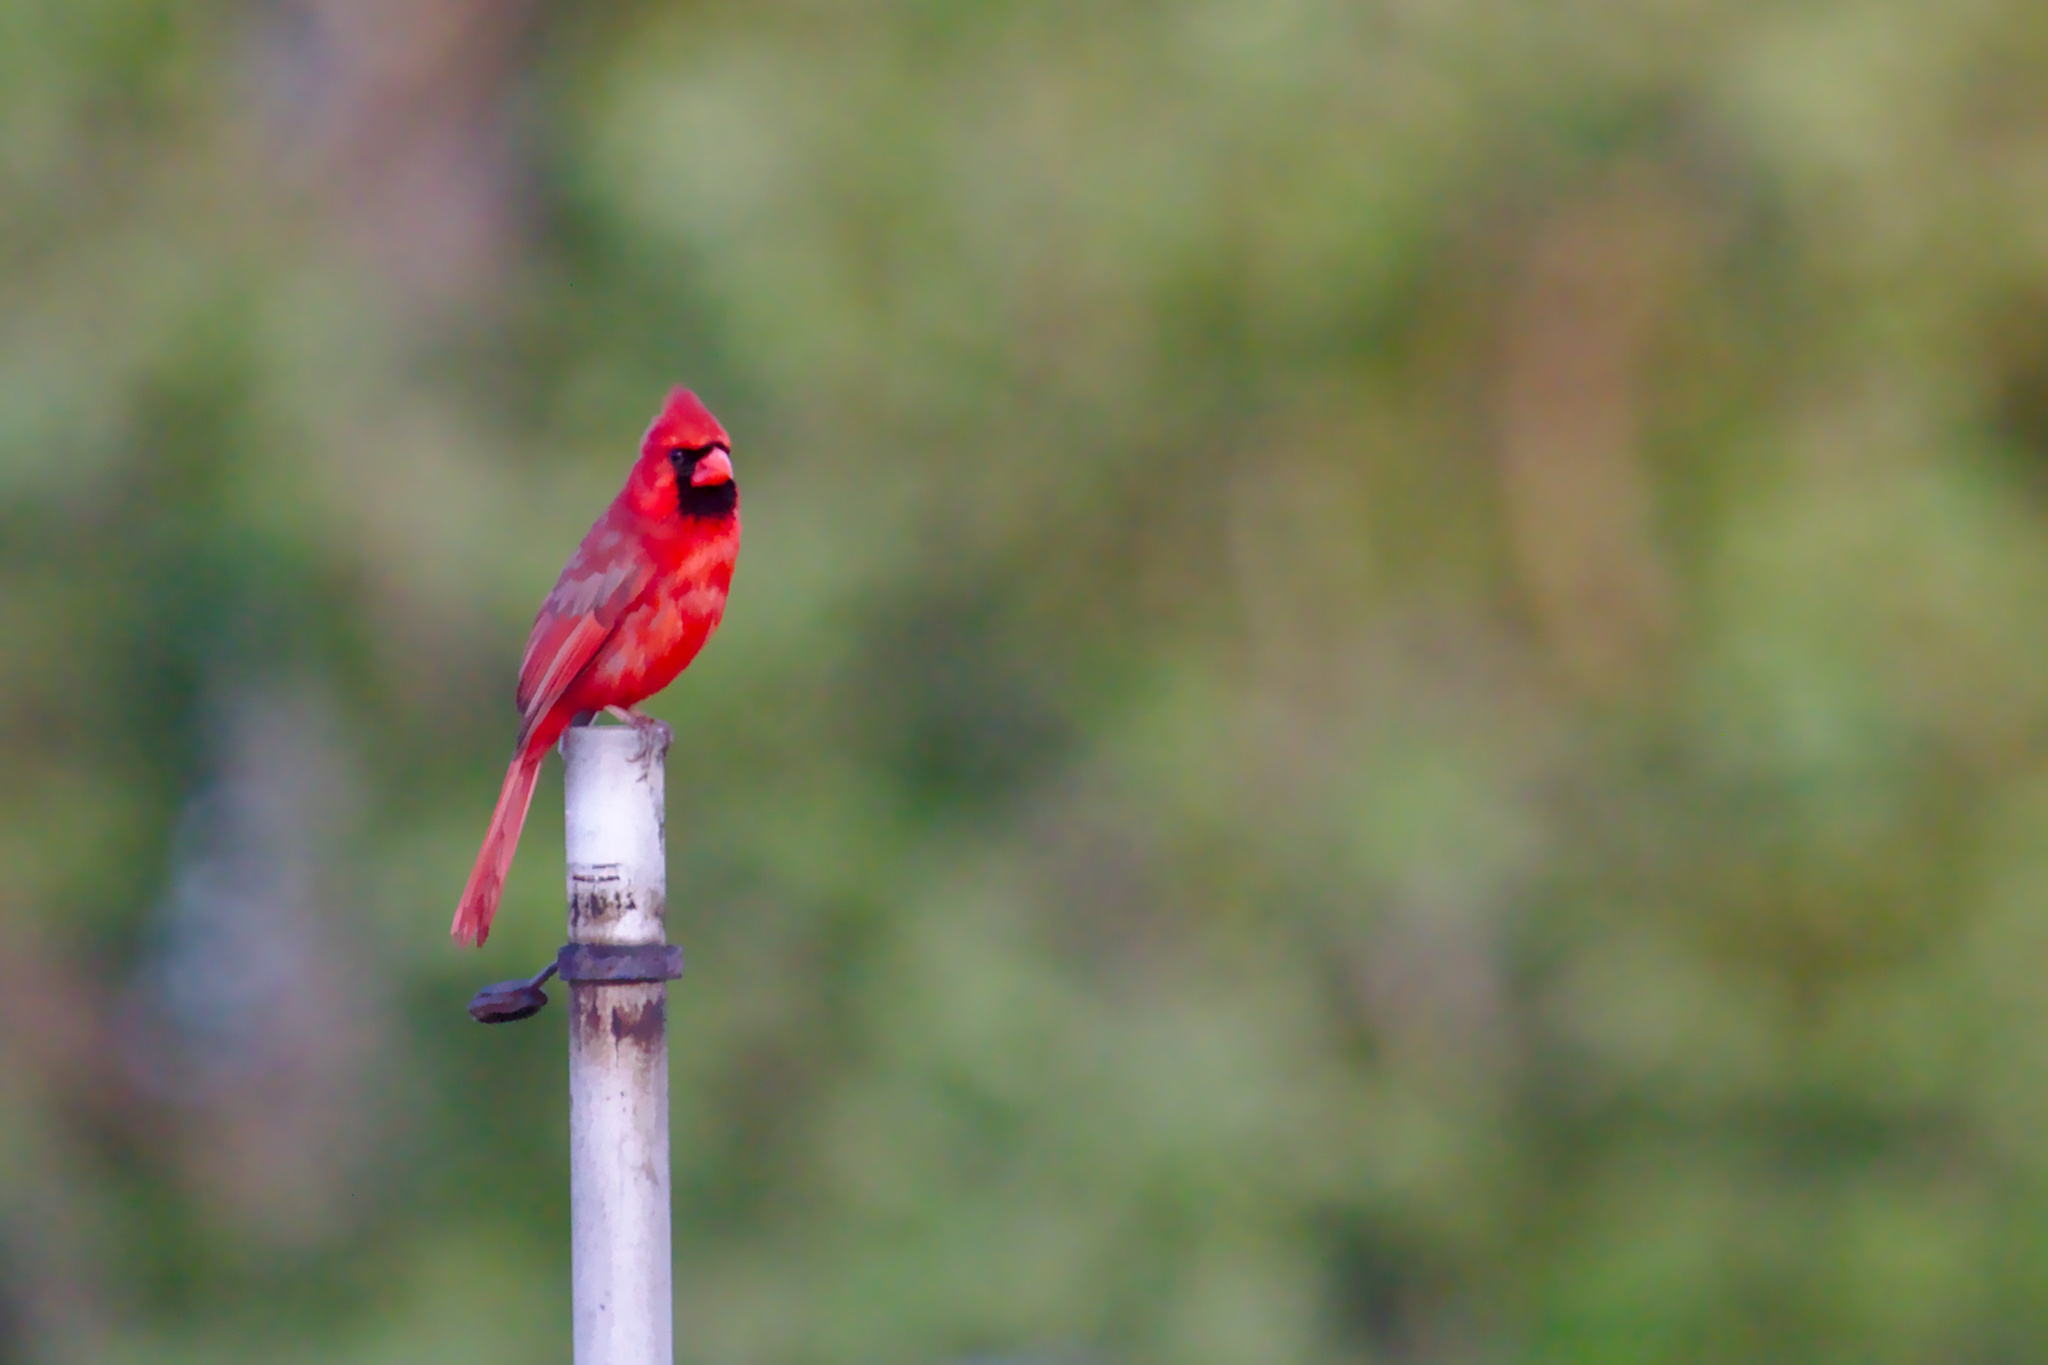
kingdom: Animalia
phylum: Chordata
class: Aves
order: Passeriformes
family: Cardinalidae
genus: Cardinalis
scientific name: Cardinalis cardinalis
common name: Northern cardinal
